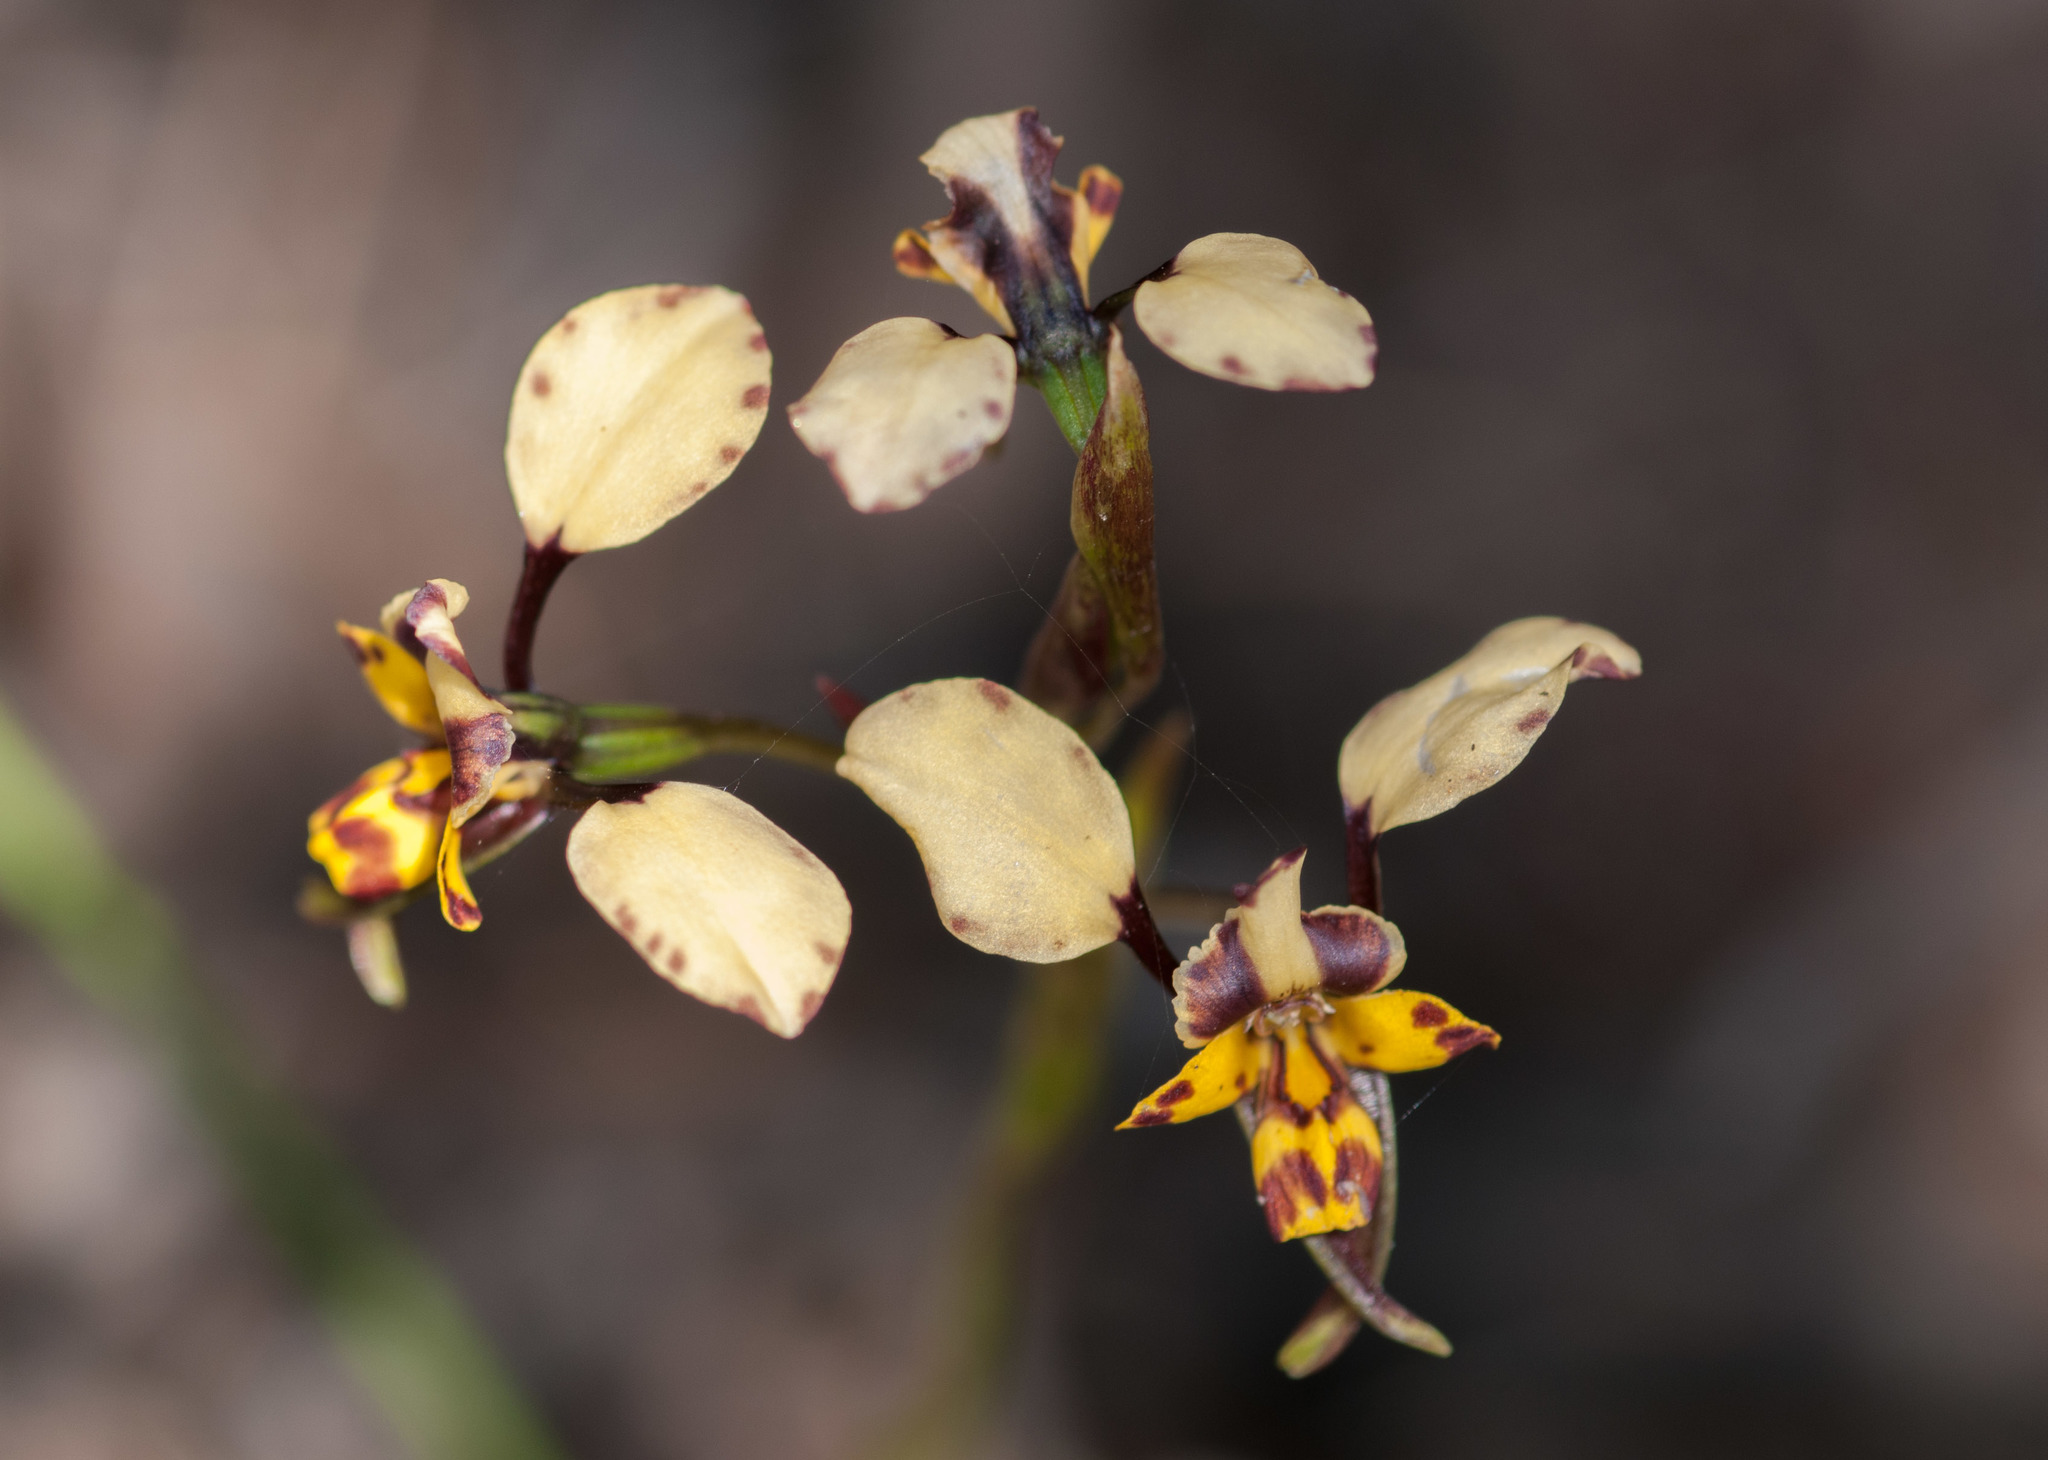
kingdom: Plantae
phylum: Tracheophyta
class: Liliopsida
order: Asparagales
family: Orchidaceae
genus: Diuris
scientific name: Diuris pardina
